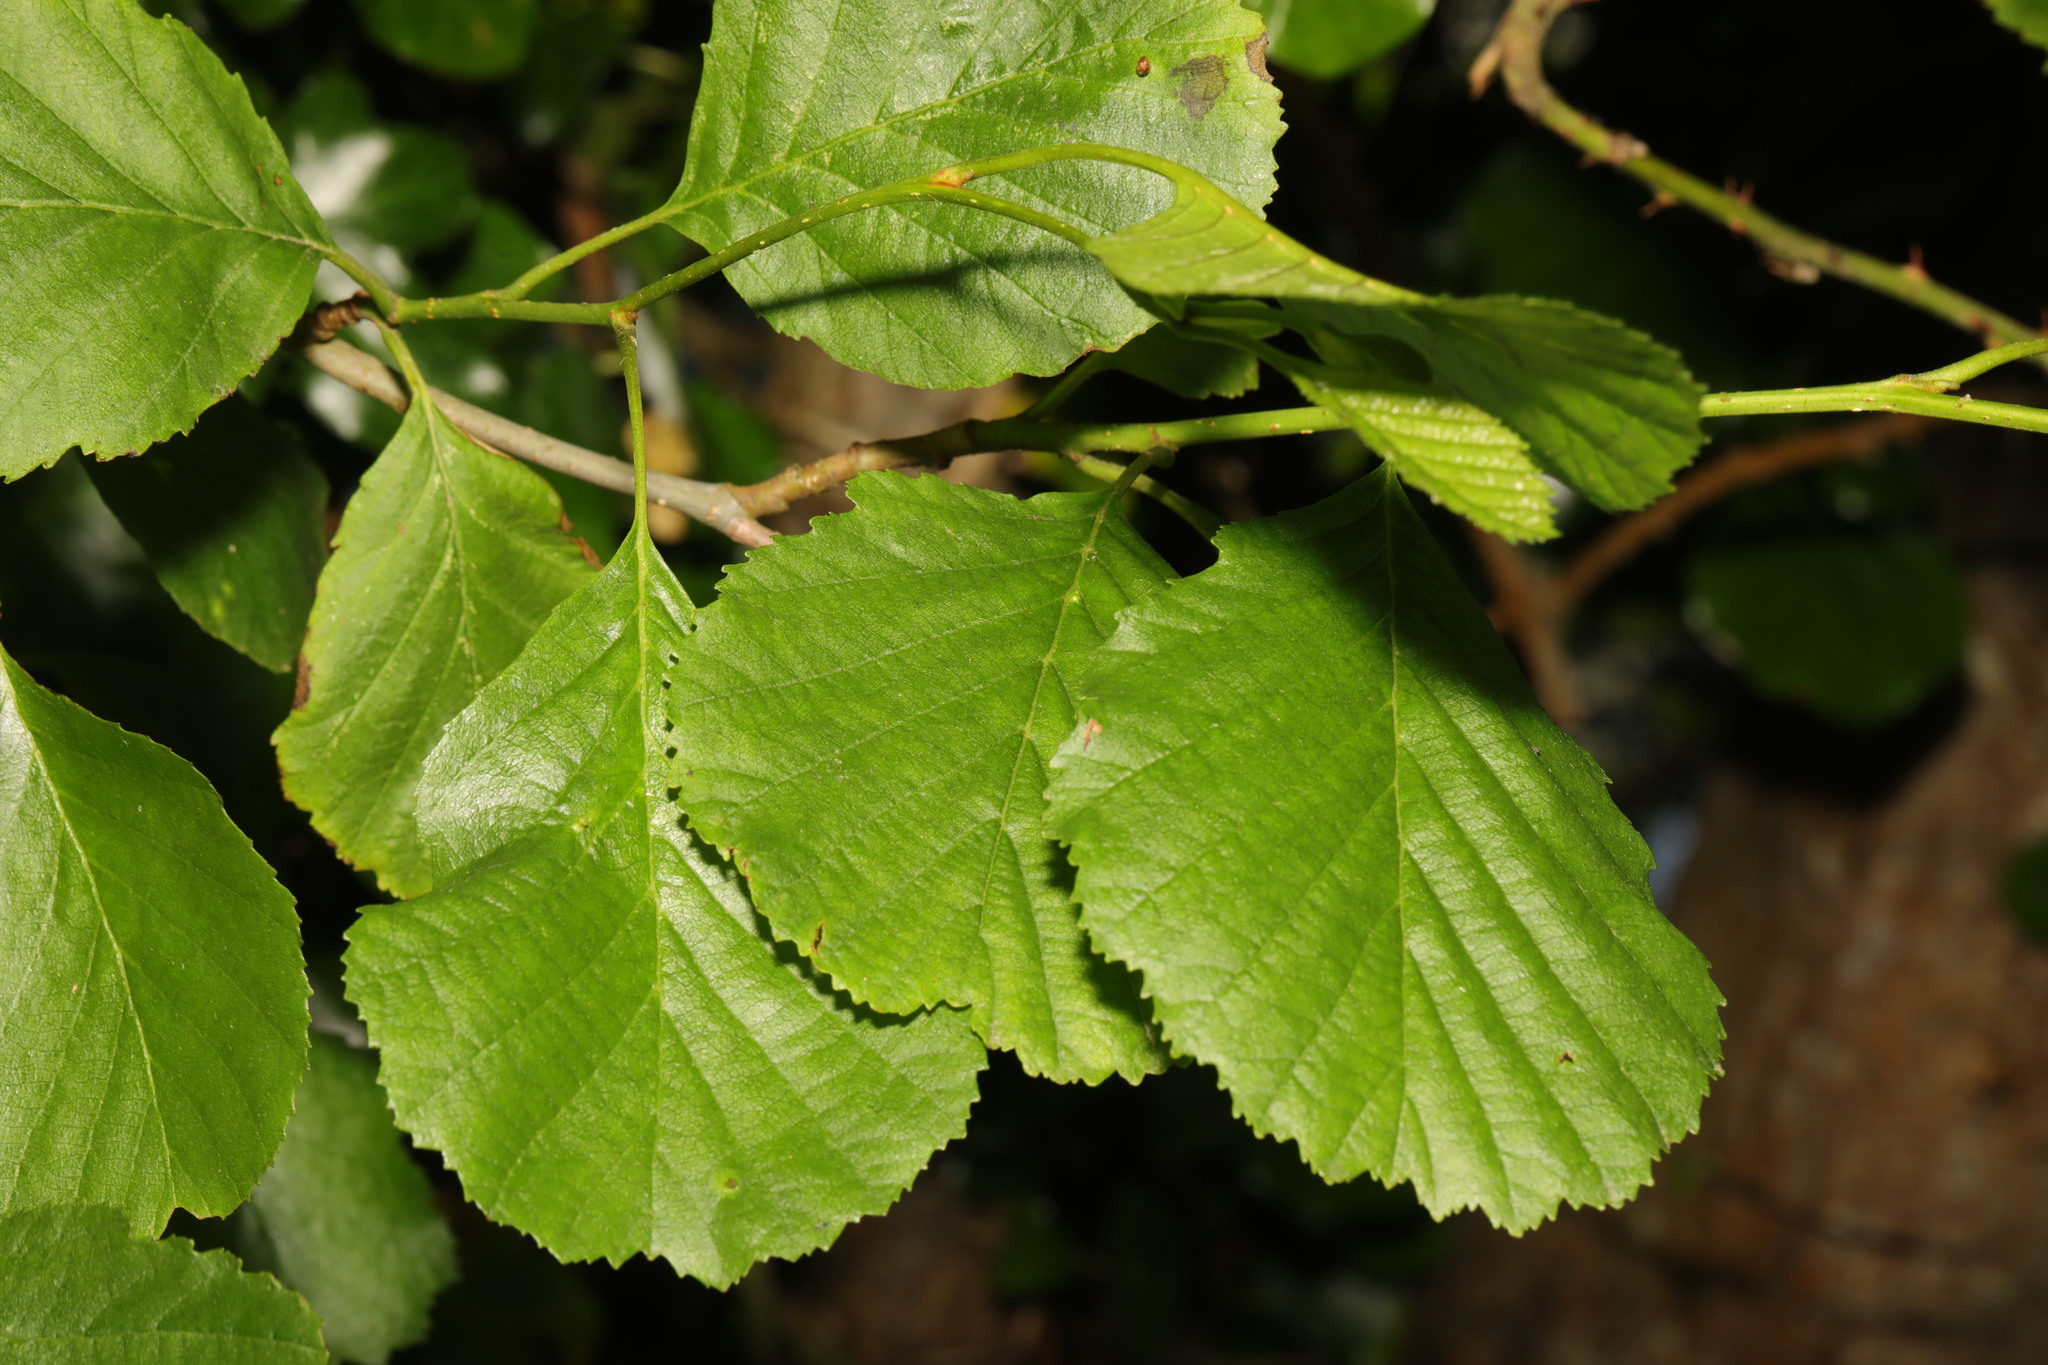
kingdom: Plantae
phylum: Tracheophyta
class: Magnoliopsida
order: Fagales
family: Betulaceae
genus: Alnus
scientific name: Alnus glutinosa
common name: Black alder
